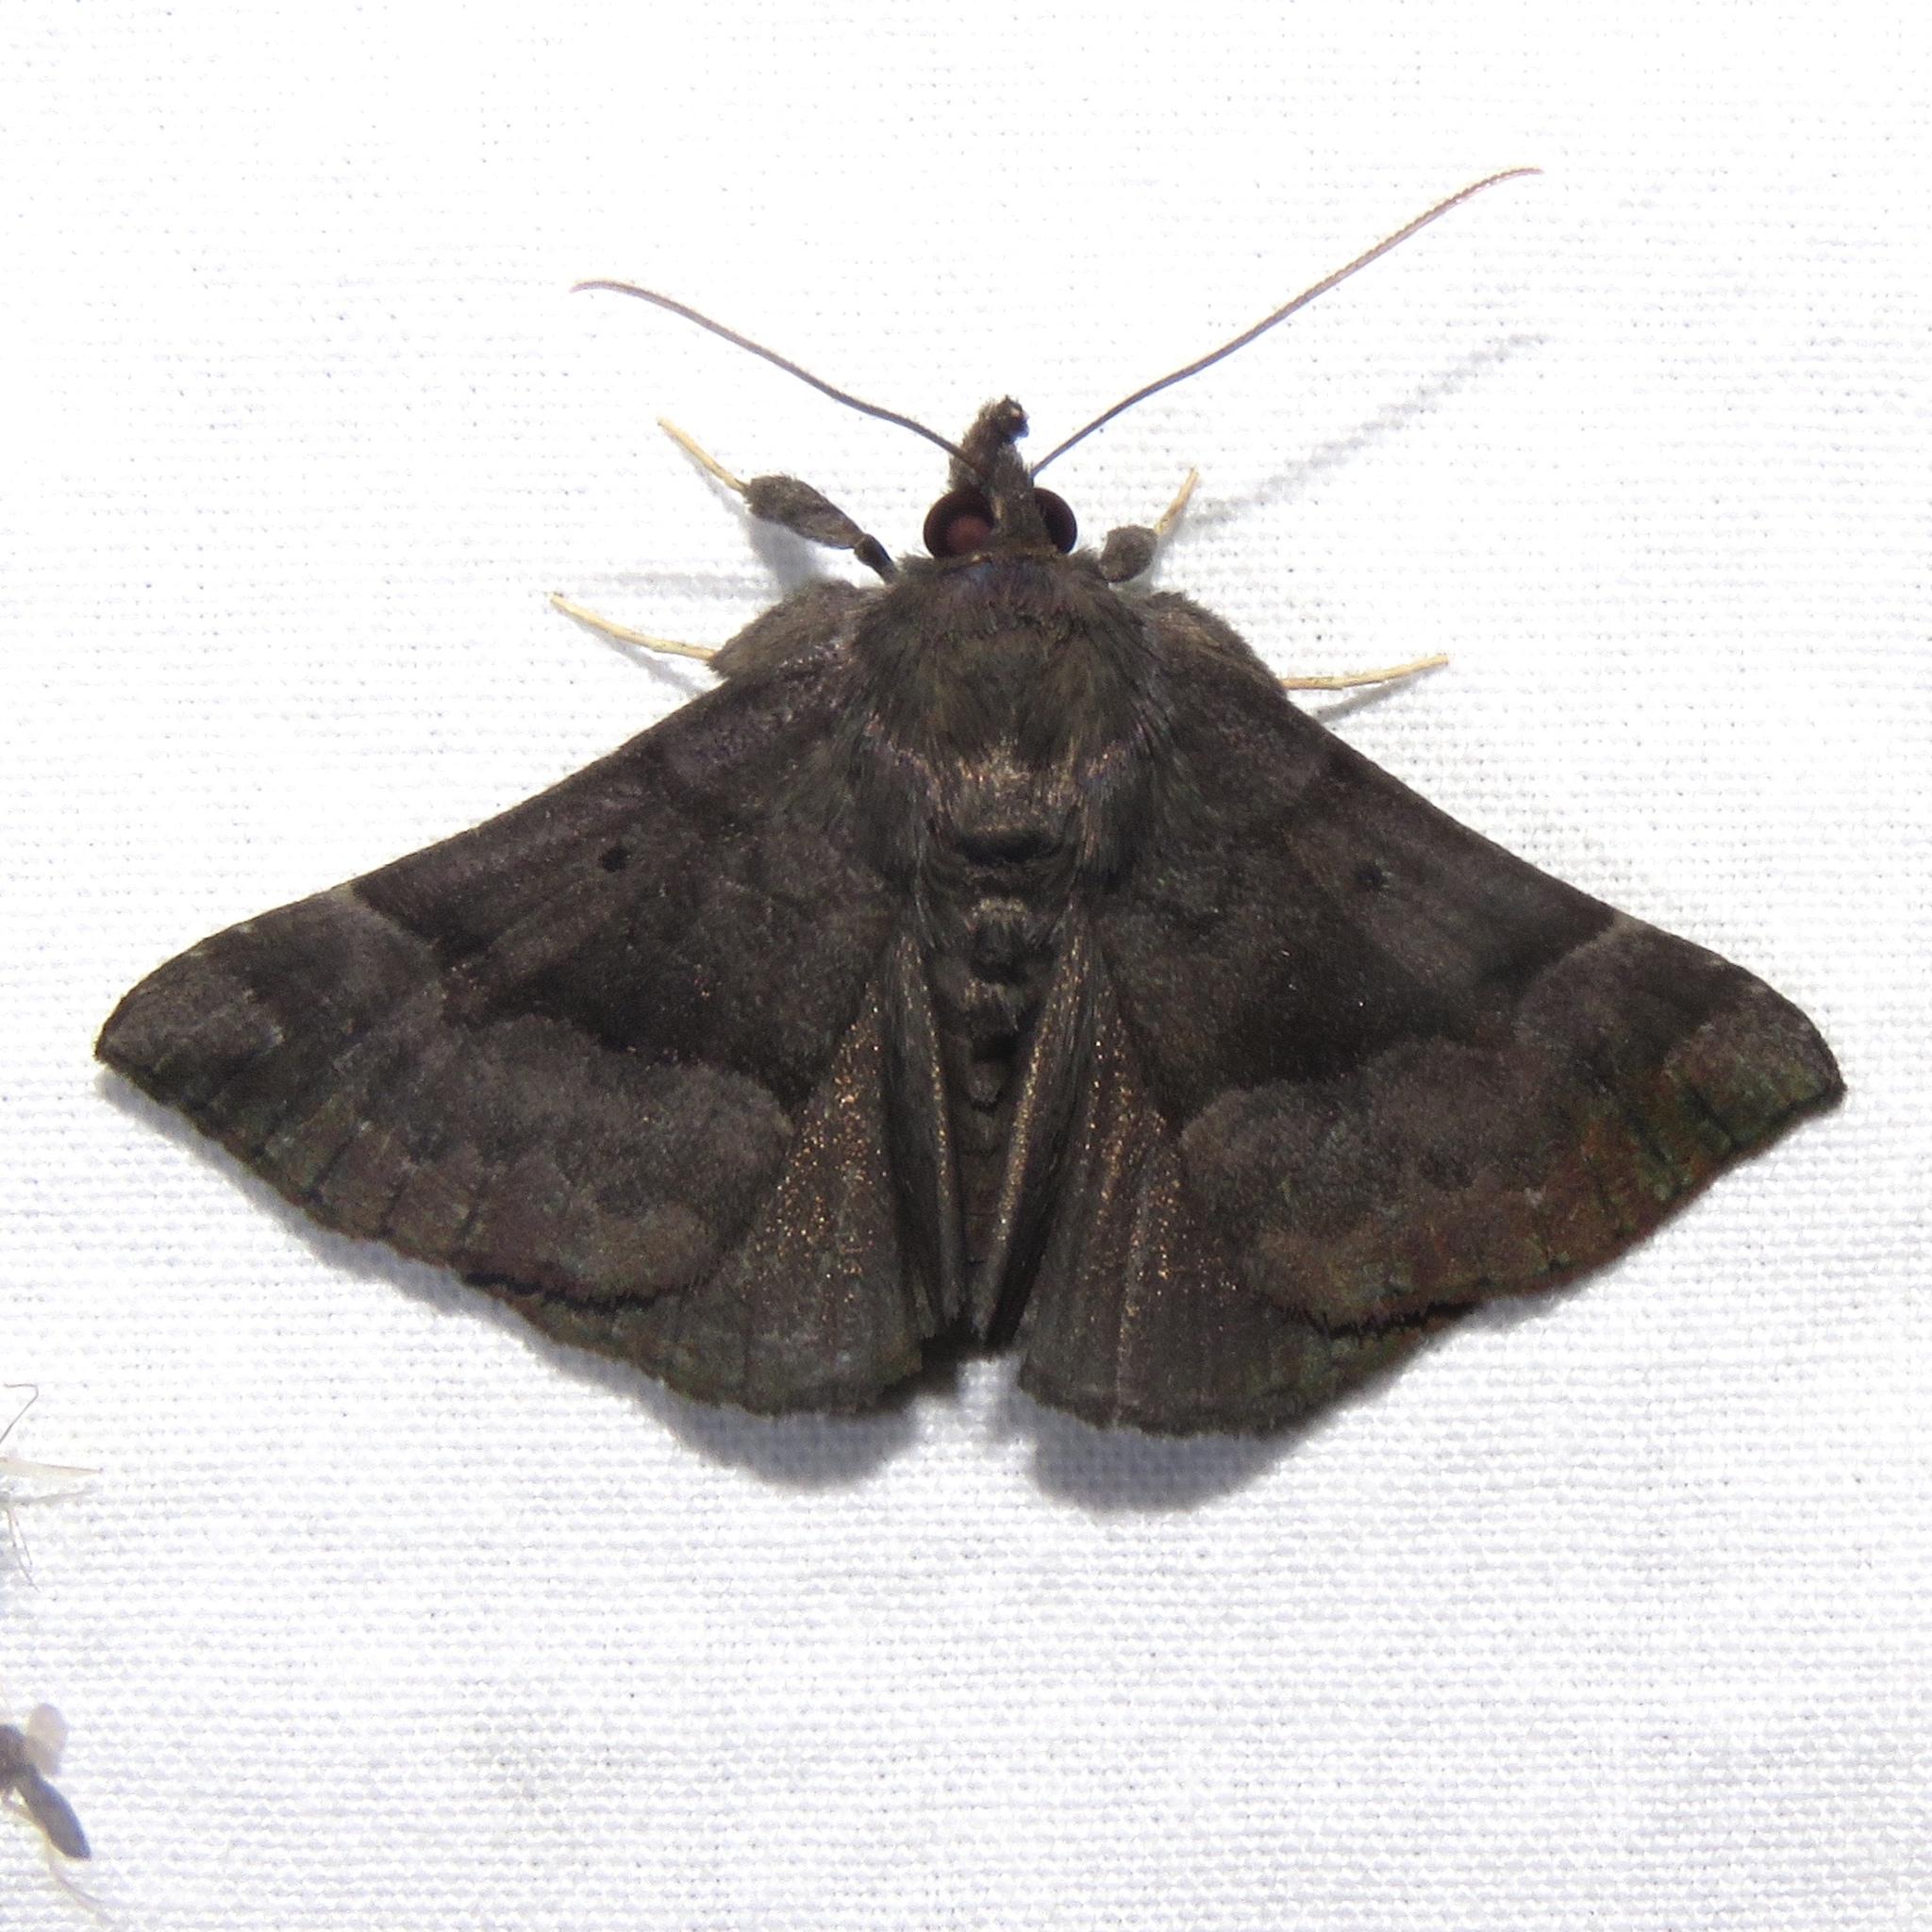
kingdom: Animalia
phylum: Arthropoda
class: Insecta
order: Lepidoptera
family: Erebidae
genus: Hypena
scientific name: Hypena madefactalis
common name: Gray-edged snout
